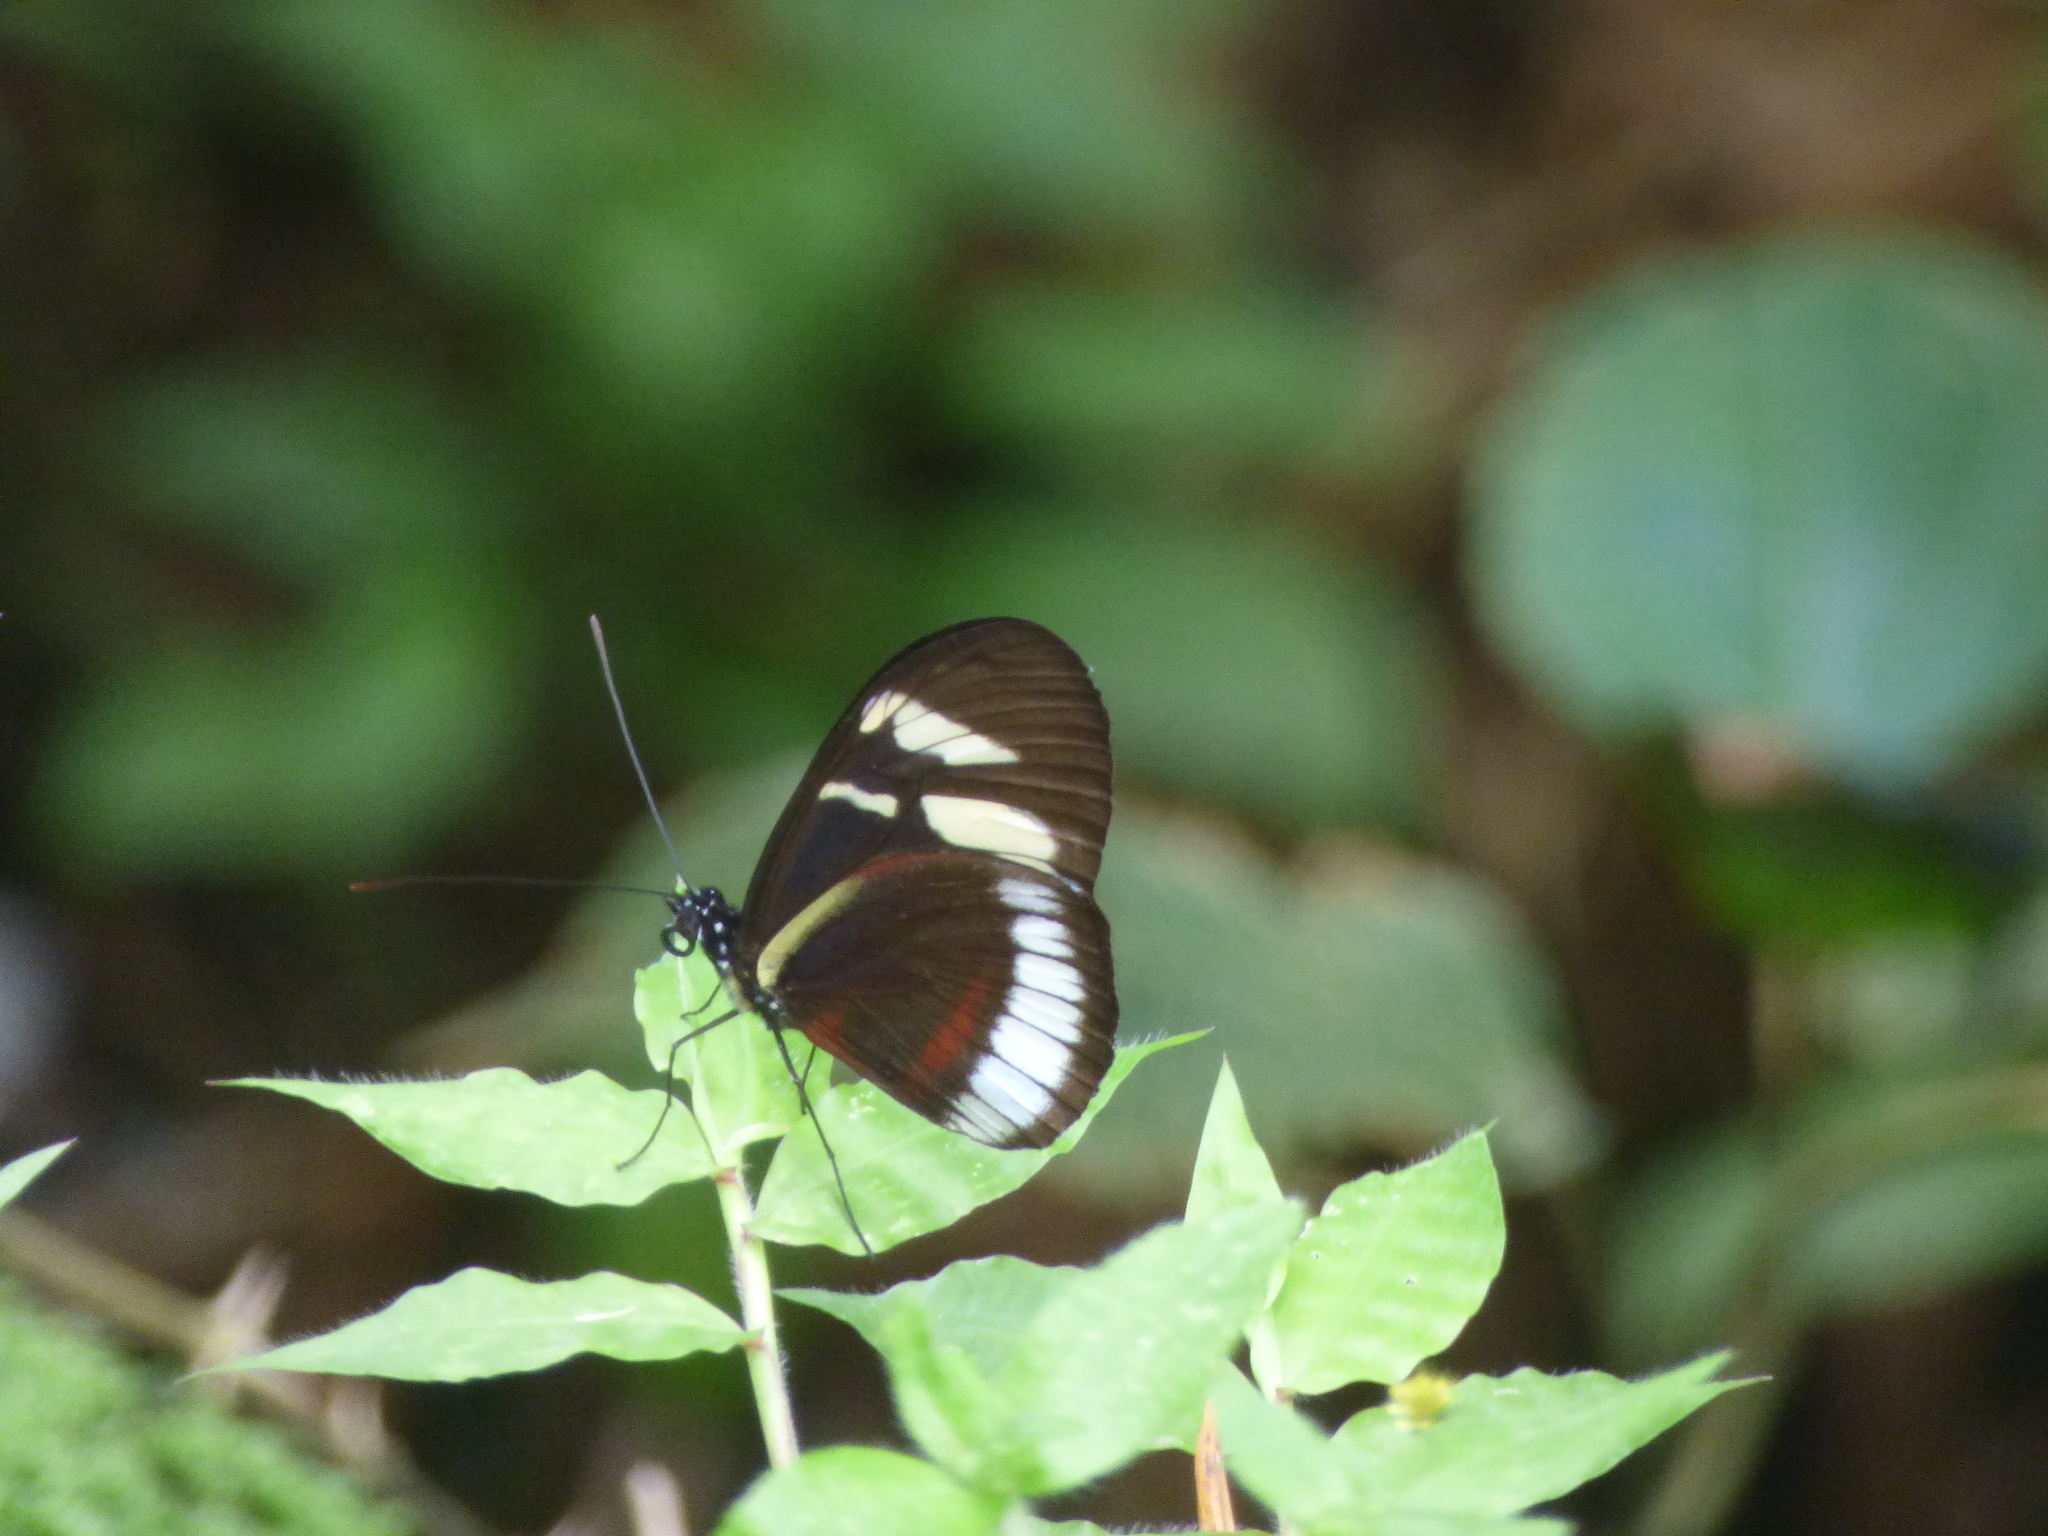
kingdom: Animalia
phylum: Arthropoda
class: Insecta
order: Lepidoptera
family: Nymphalidae
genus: Heliconius
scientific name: Heliconius cydno
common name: Cydno longwing
